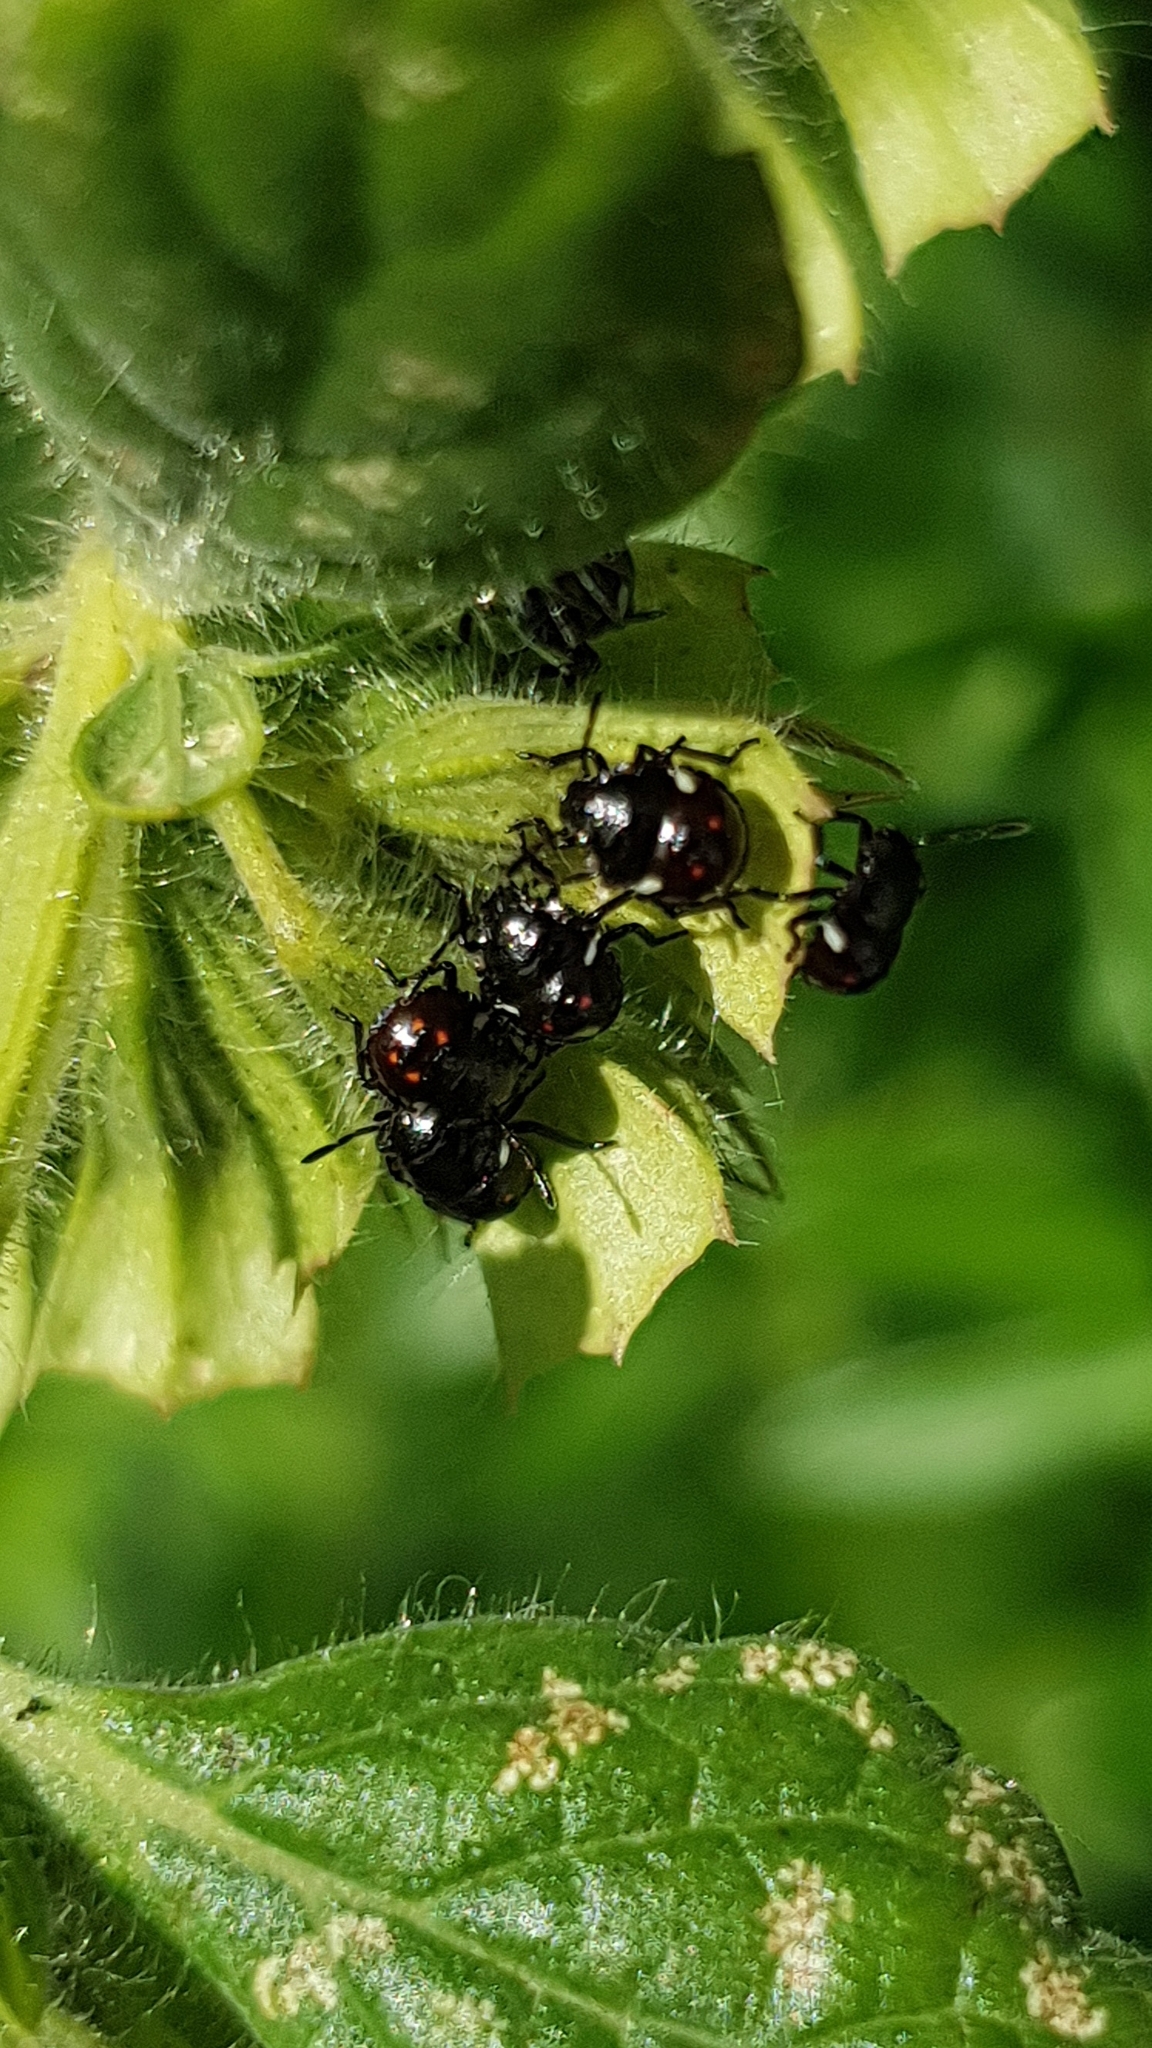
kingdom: Animalia
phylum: Arthropoda
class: Insecta
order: Hemiptera
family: Pentatomidae
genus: Nezara
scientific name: Nezara viridula
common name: Southern green stink bug
